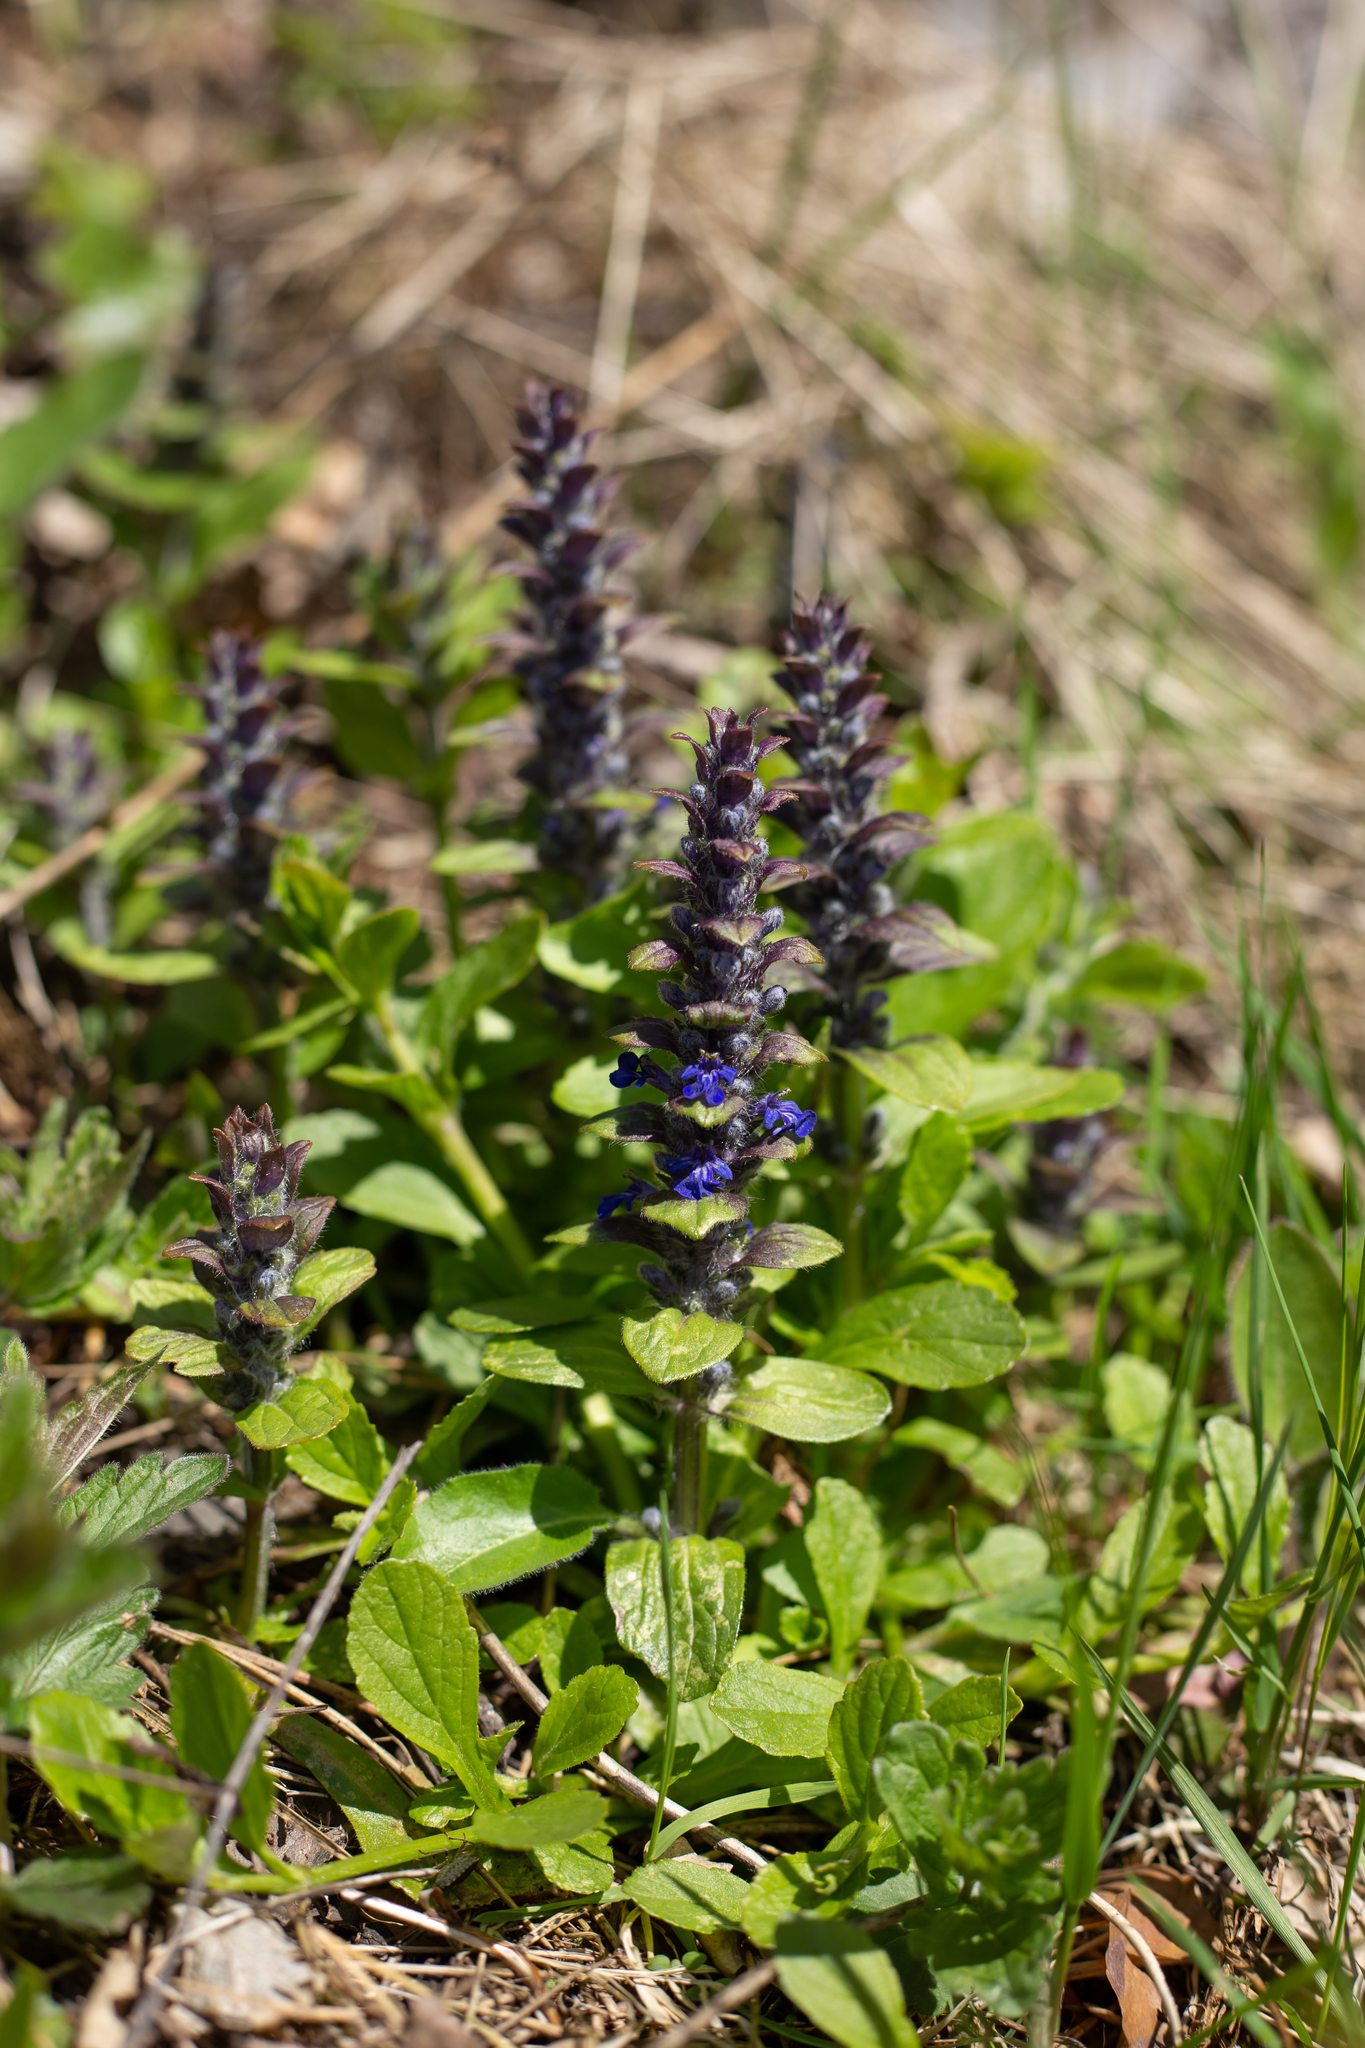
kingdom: Plantae
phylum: Tracheophyta
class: Magnoliopsida
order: Lamiales
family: Lamiaceae
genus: Ajuga
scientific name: Ajuga reptans
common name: Bugle
